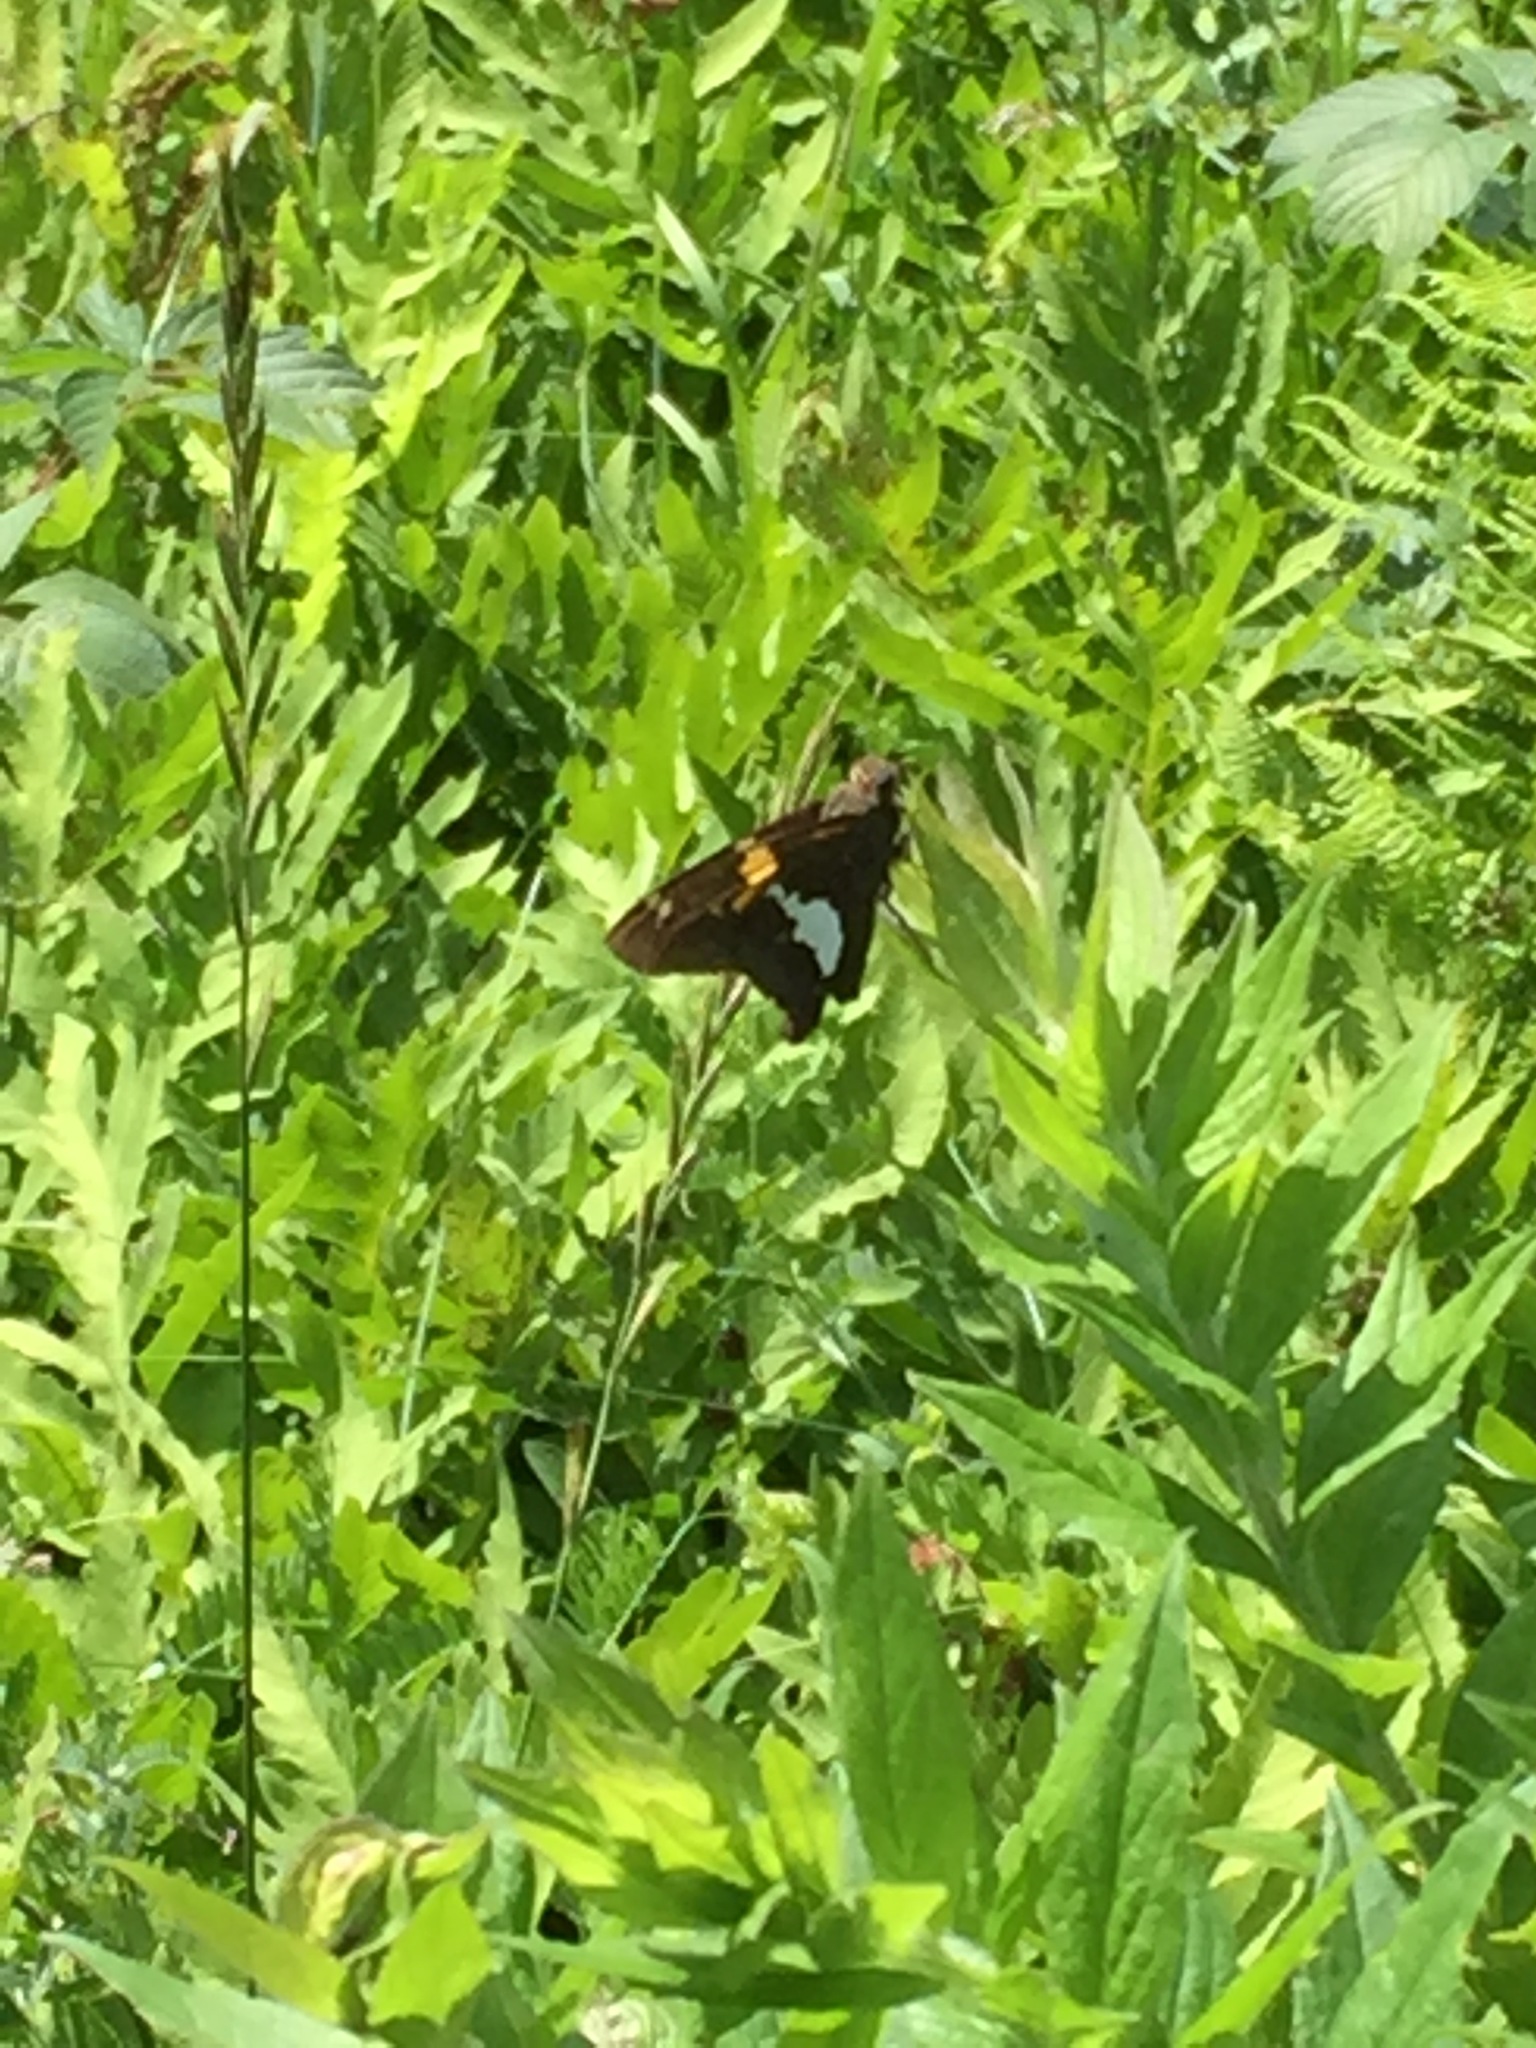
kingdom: Animalia
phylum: Arthropoda
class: Insecta
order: Lepidoptera
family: Hesperiidae
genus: Epargyreus
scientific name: Epargyreus clarus
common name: Silver-spotted skipper
